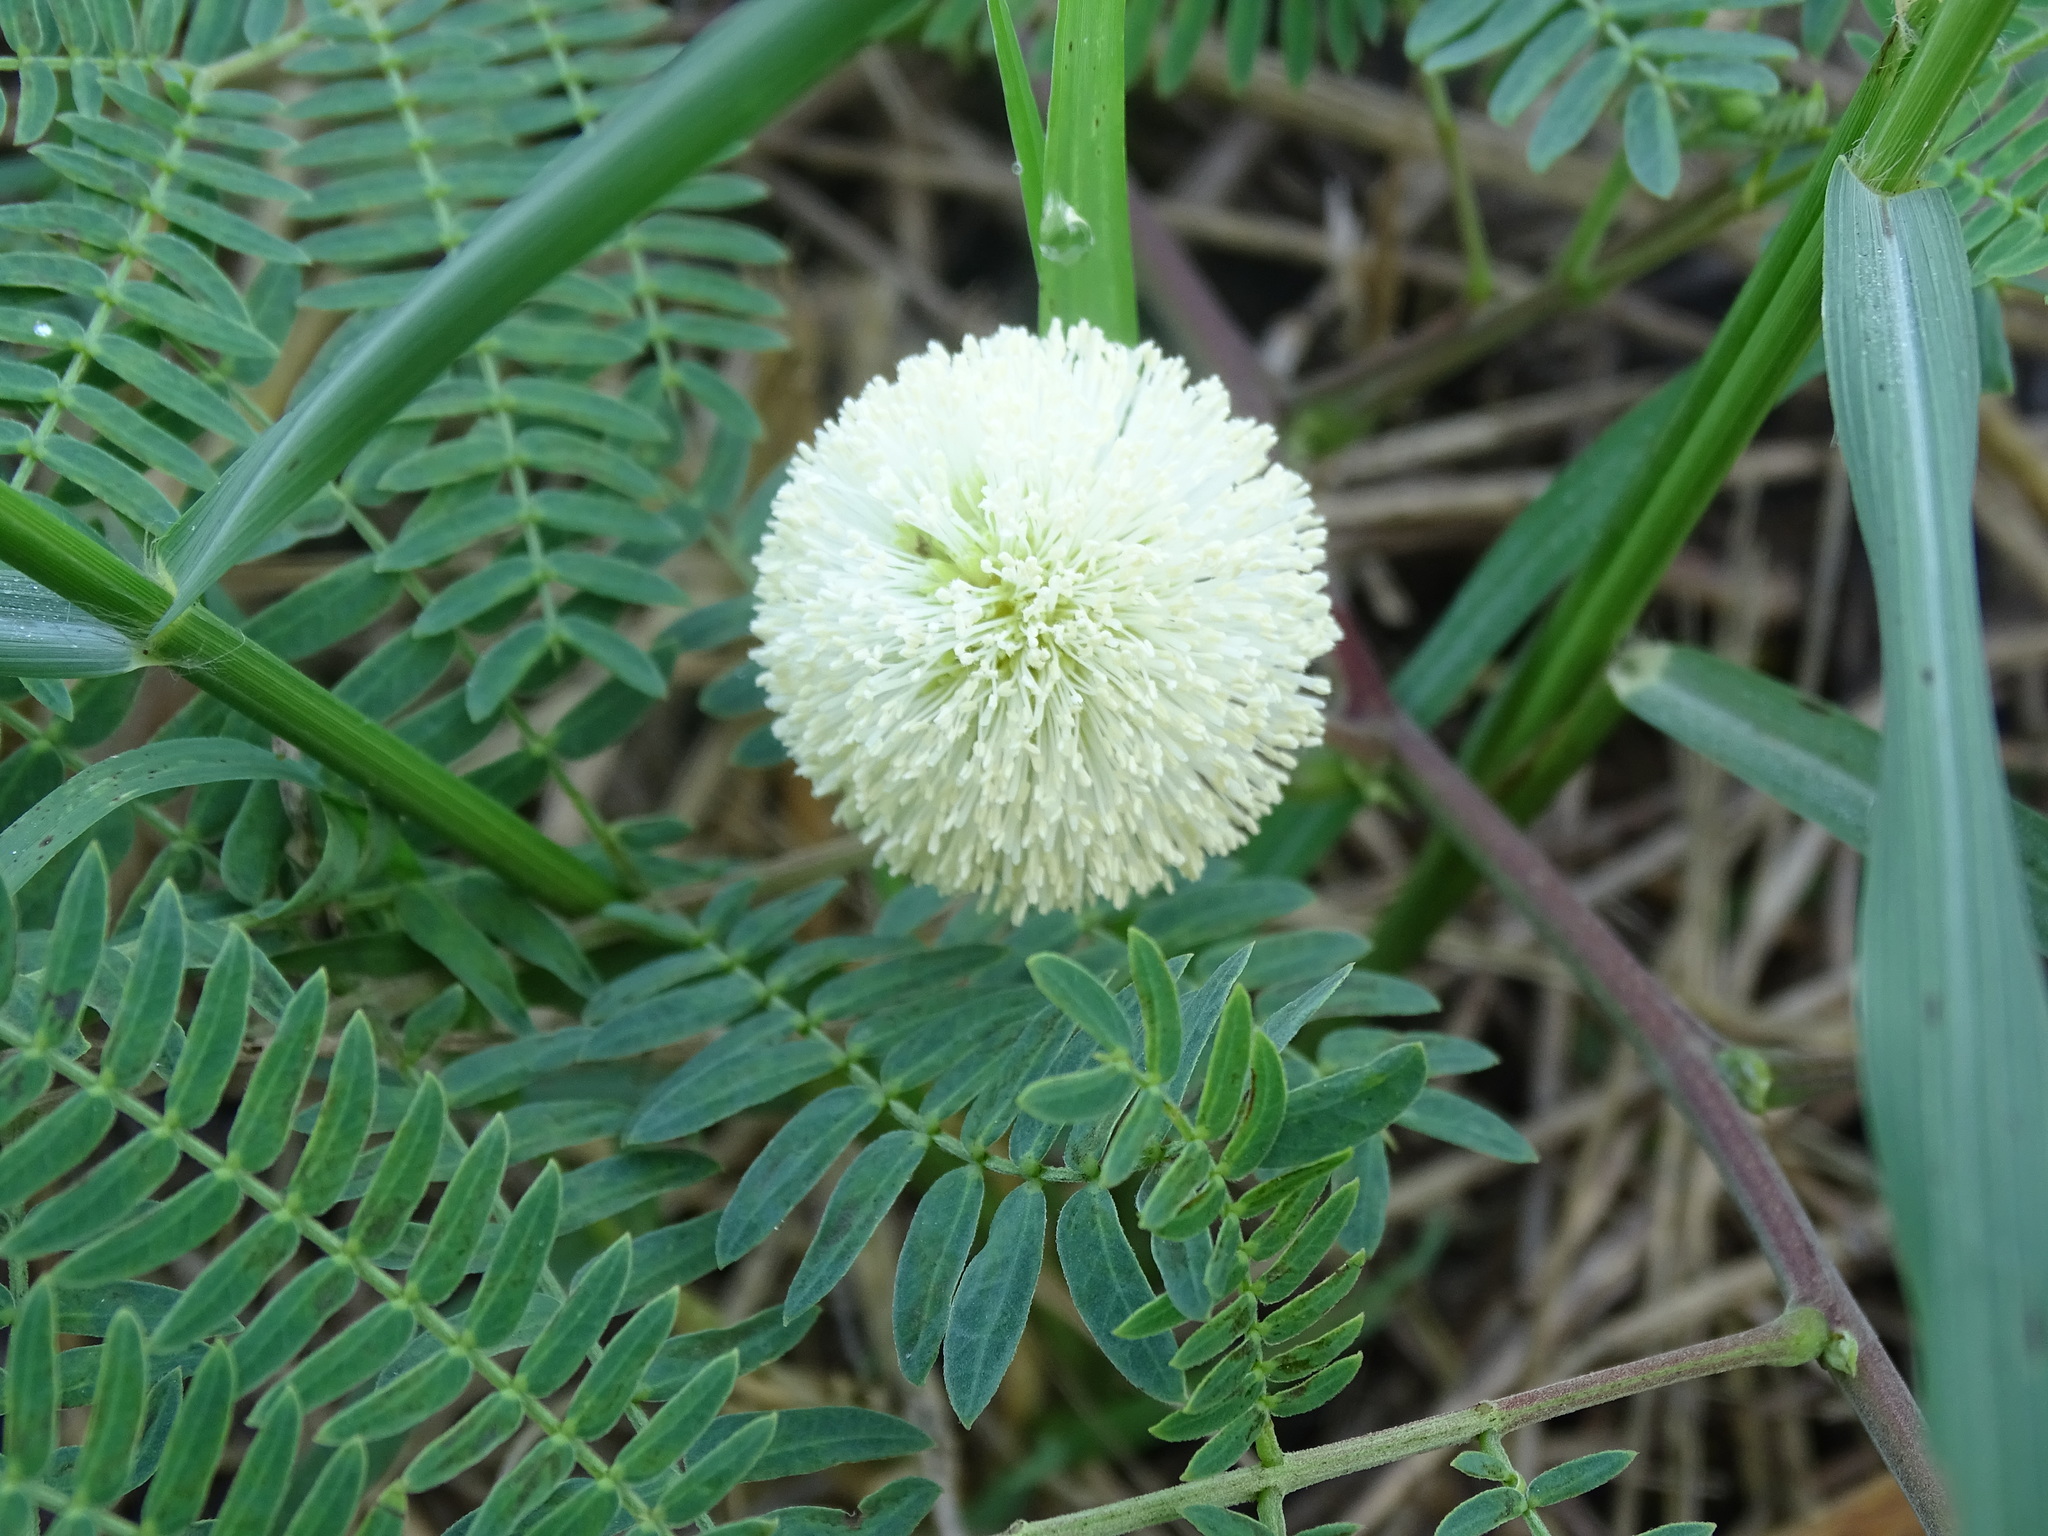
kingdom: Plantae
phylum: Tracheophyta
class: Magnoliopsida
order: Fabales
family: Fabaceae
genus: Leucaena
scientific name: Leucaena leucocephala
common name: White leadtree
